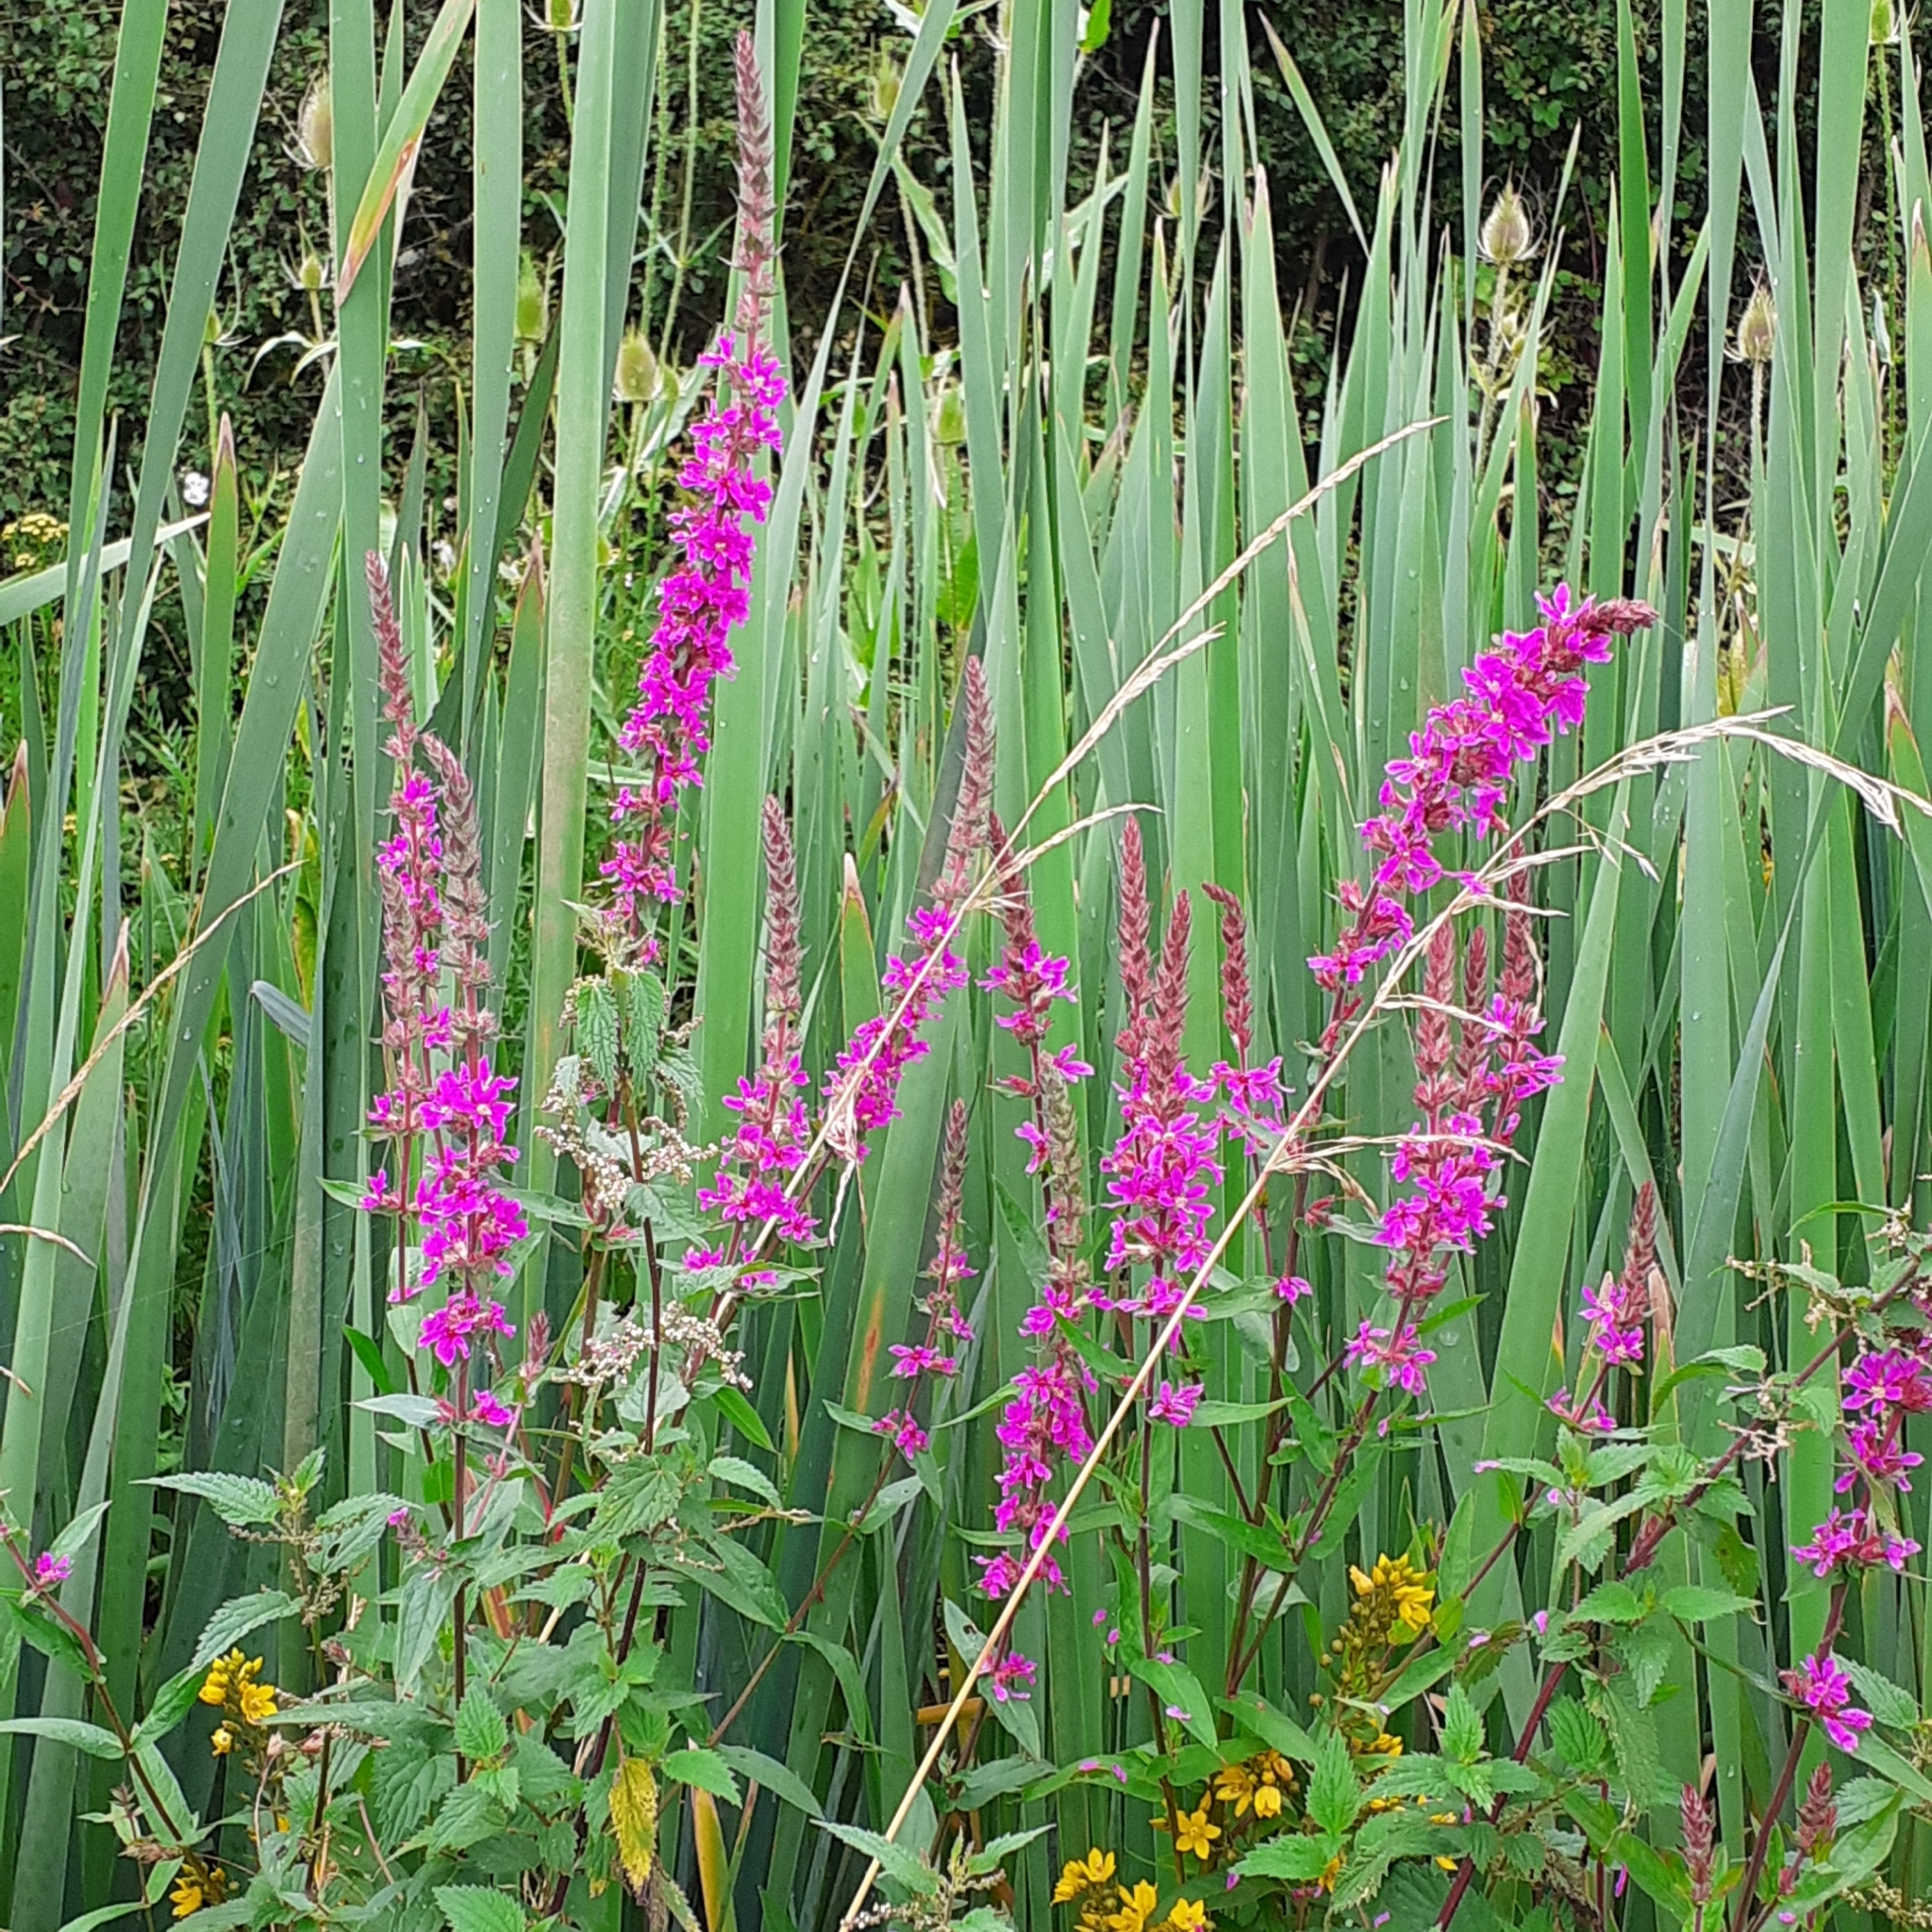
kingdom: Plantae
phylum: Tracheophyta
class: Magnoliopsida
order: Myrtales
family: Lythraceae
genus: Lythrum
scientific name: Lythrum salicaria
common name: Purple loosestrife
